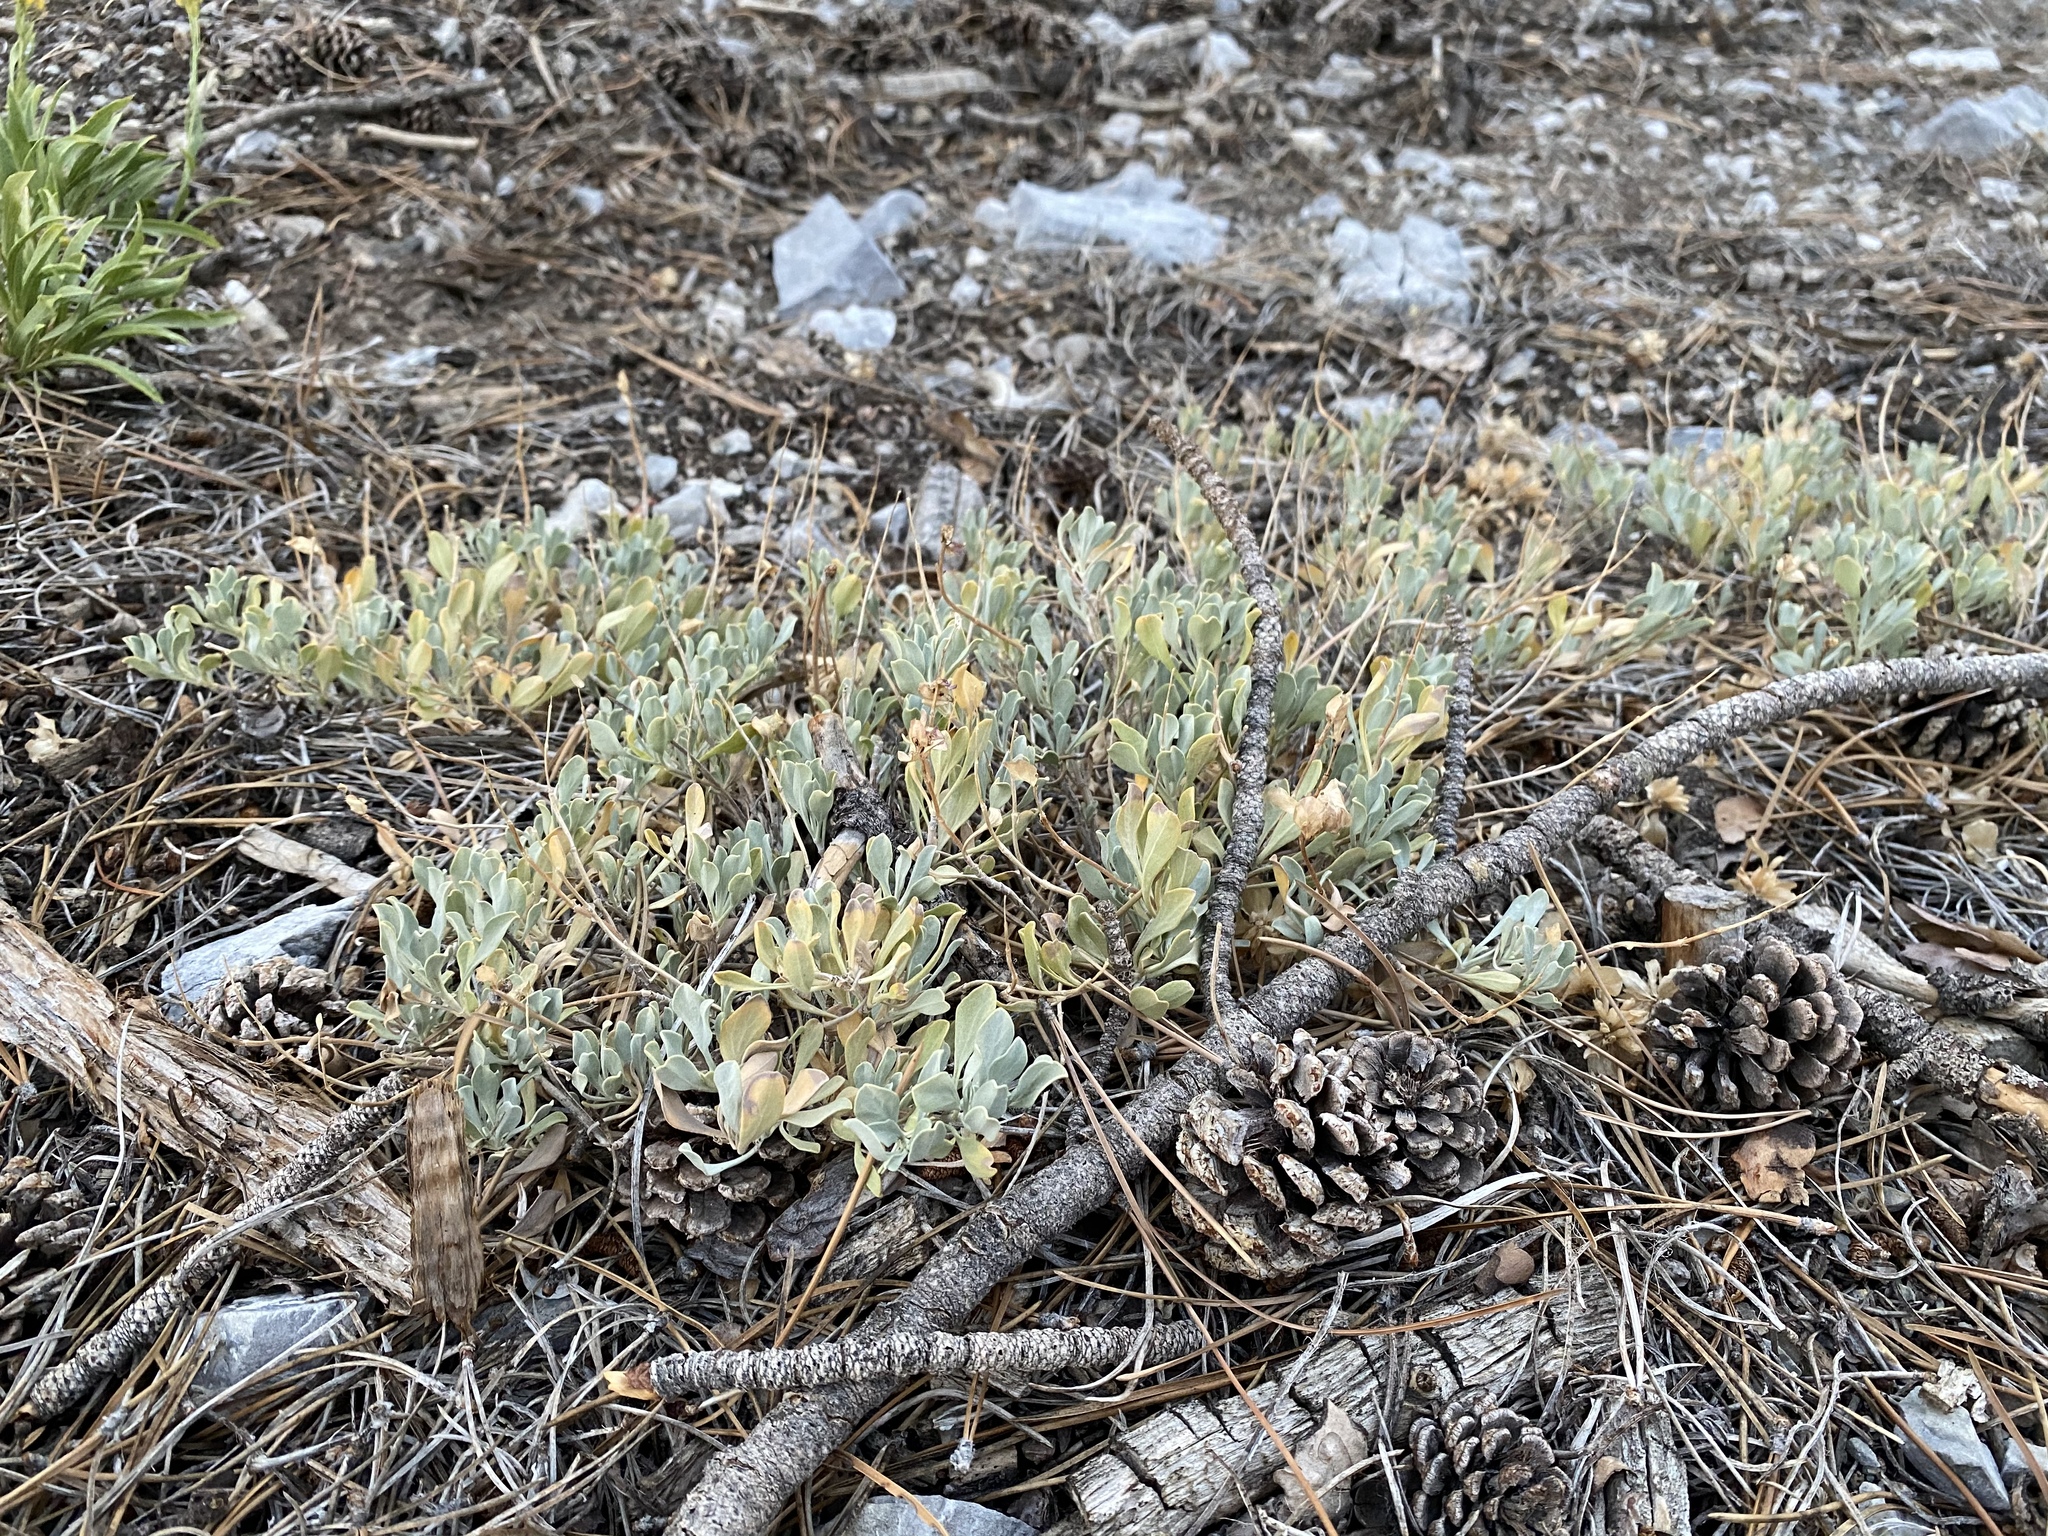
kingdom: Plantae
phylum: Tracheophyta
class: Magnoliopsida
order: Lamiales
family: Lamiaceae
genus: Salvia
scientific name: Salvia dorrii
